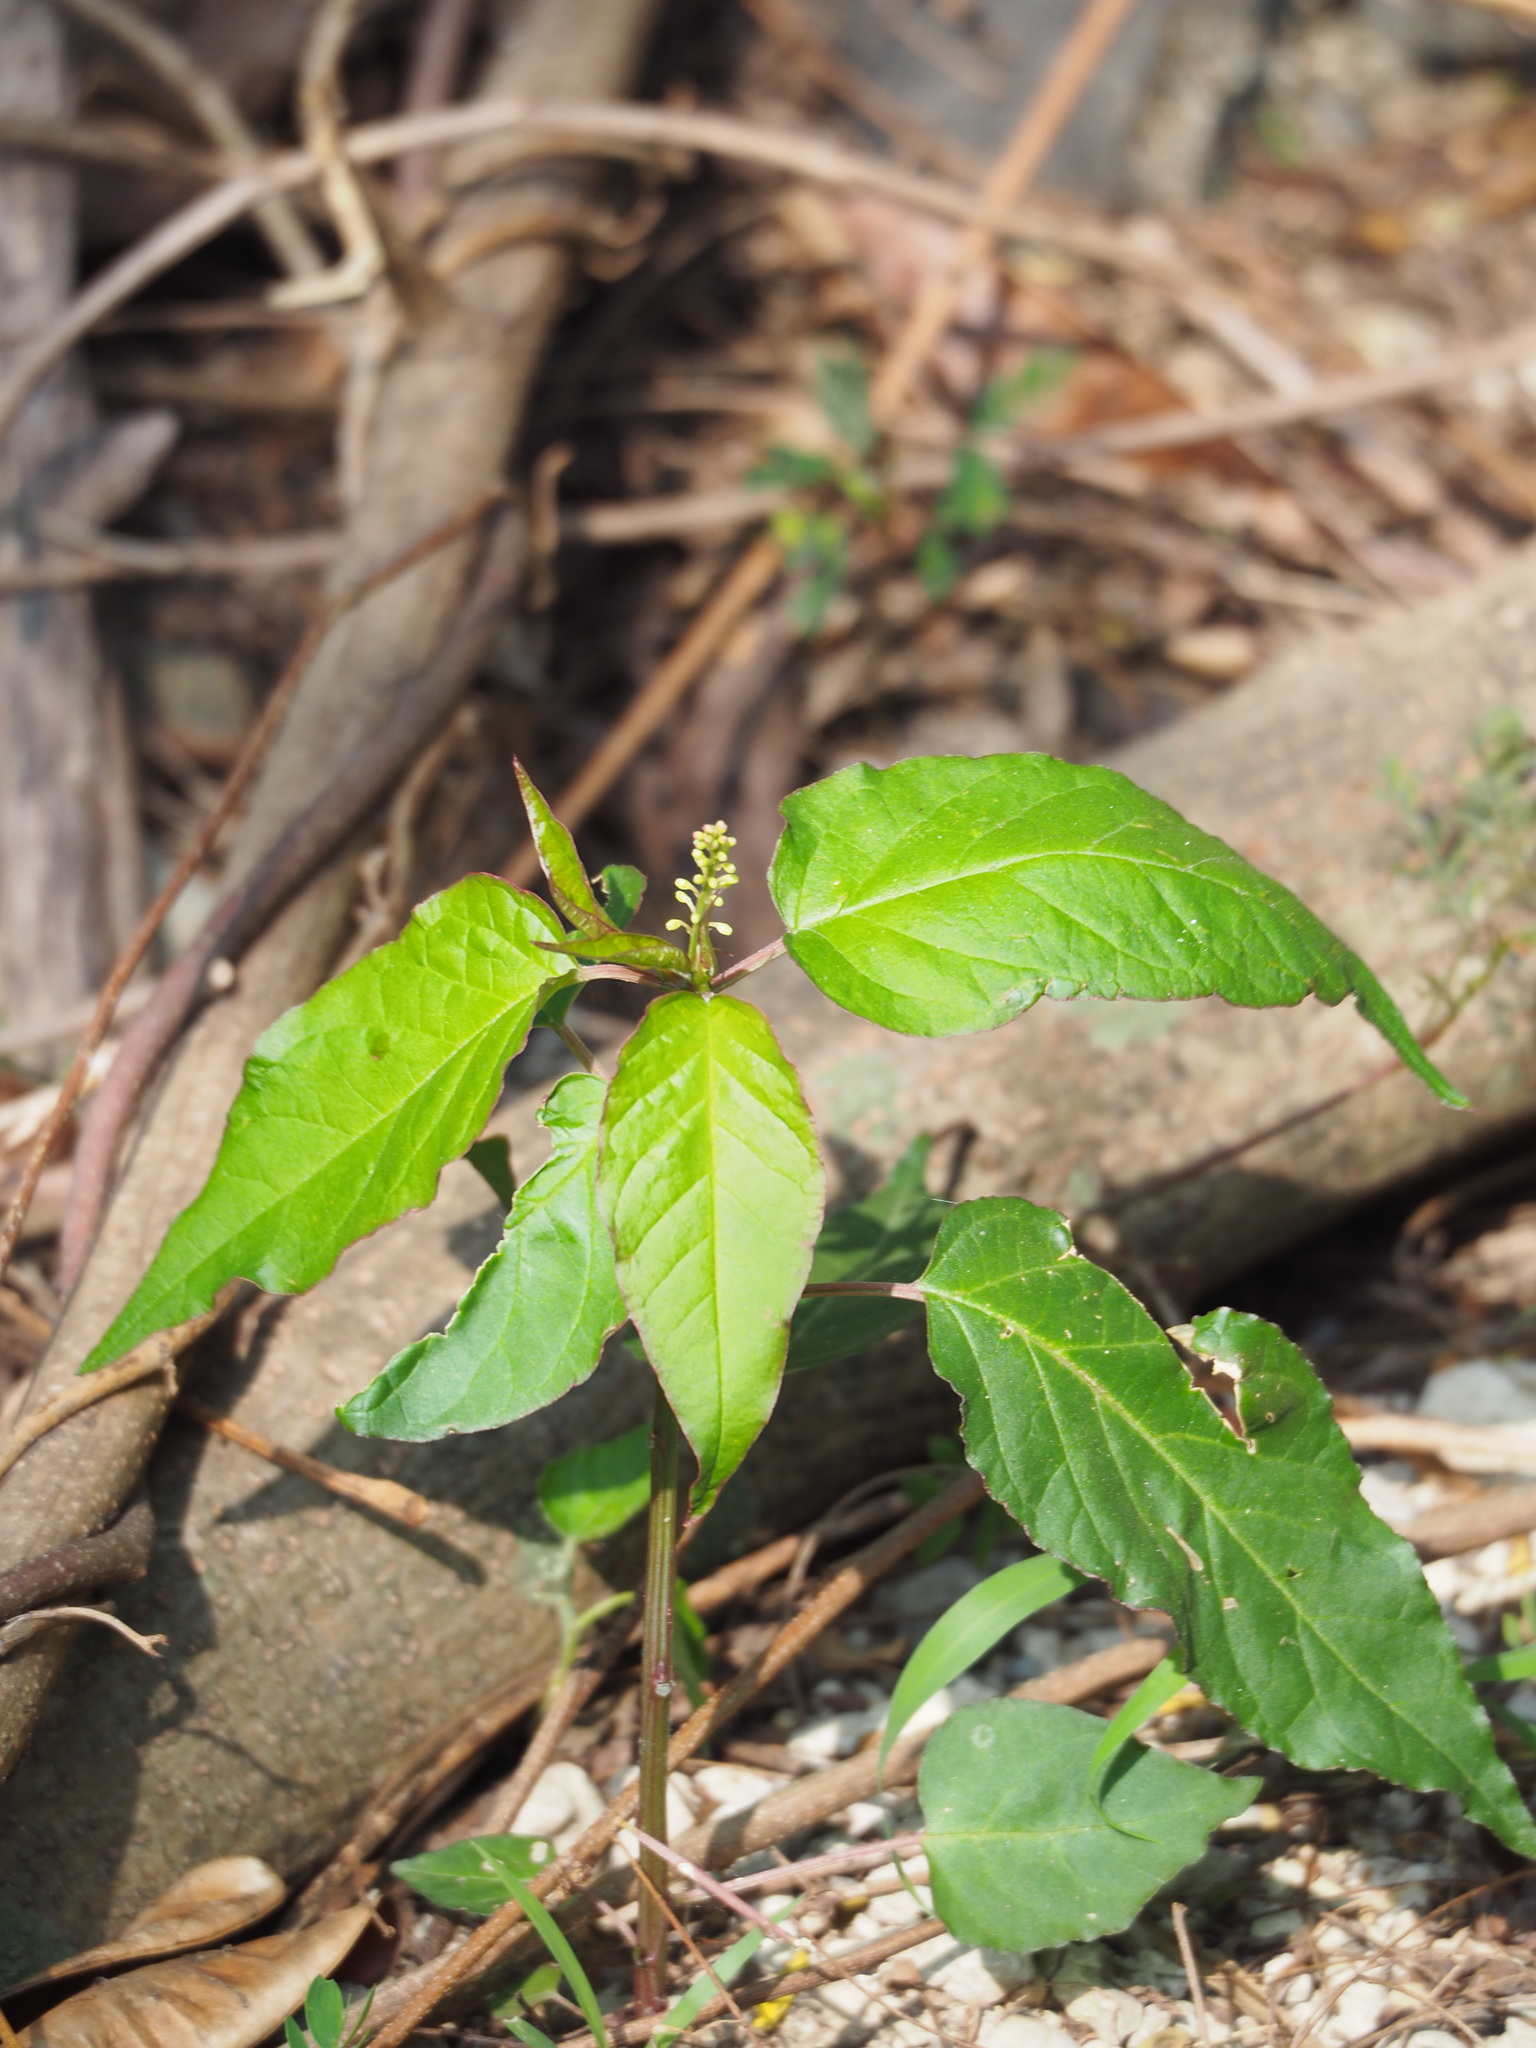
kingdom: Plantae
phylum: Tracheophyta
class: Magnoliopsida
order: Caryophyllales
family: Phytolaccaceae
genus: Rivina
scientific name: Rivina humilis
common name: Rougeplant
